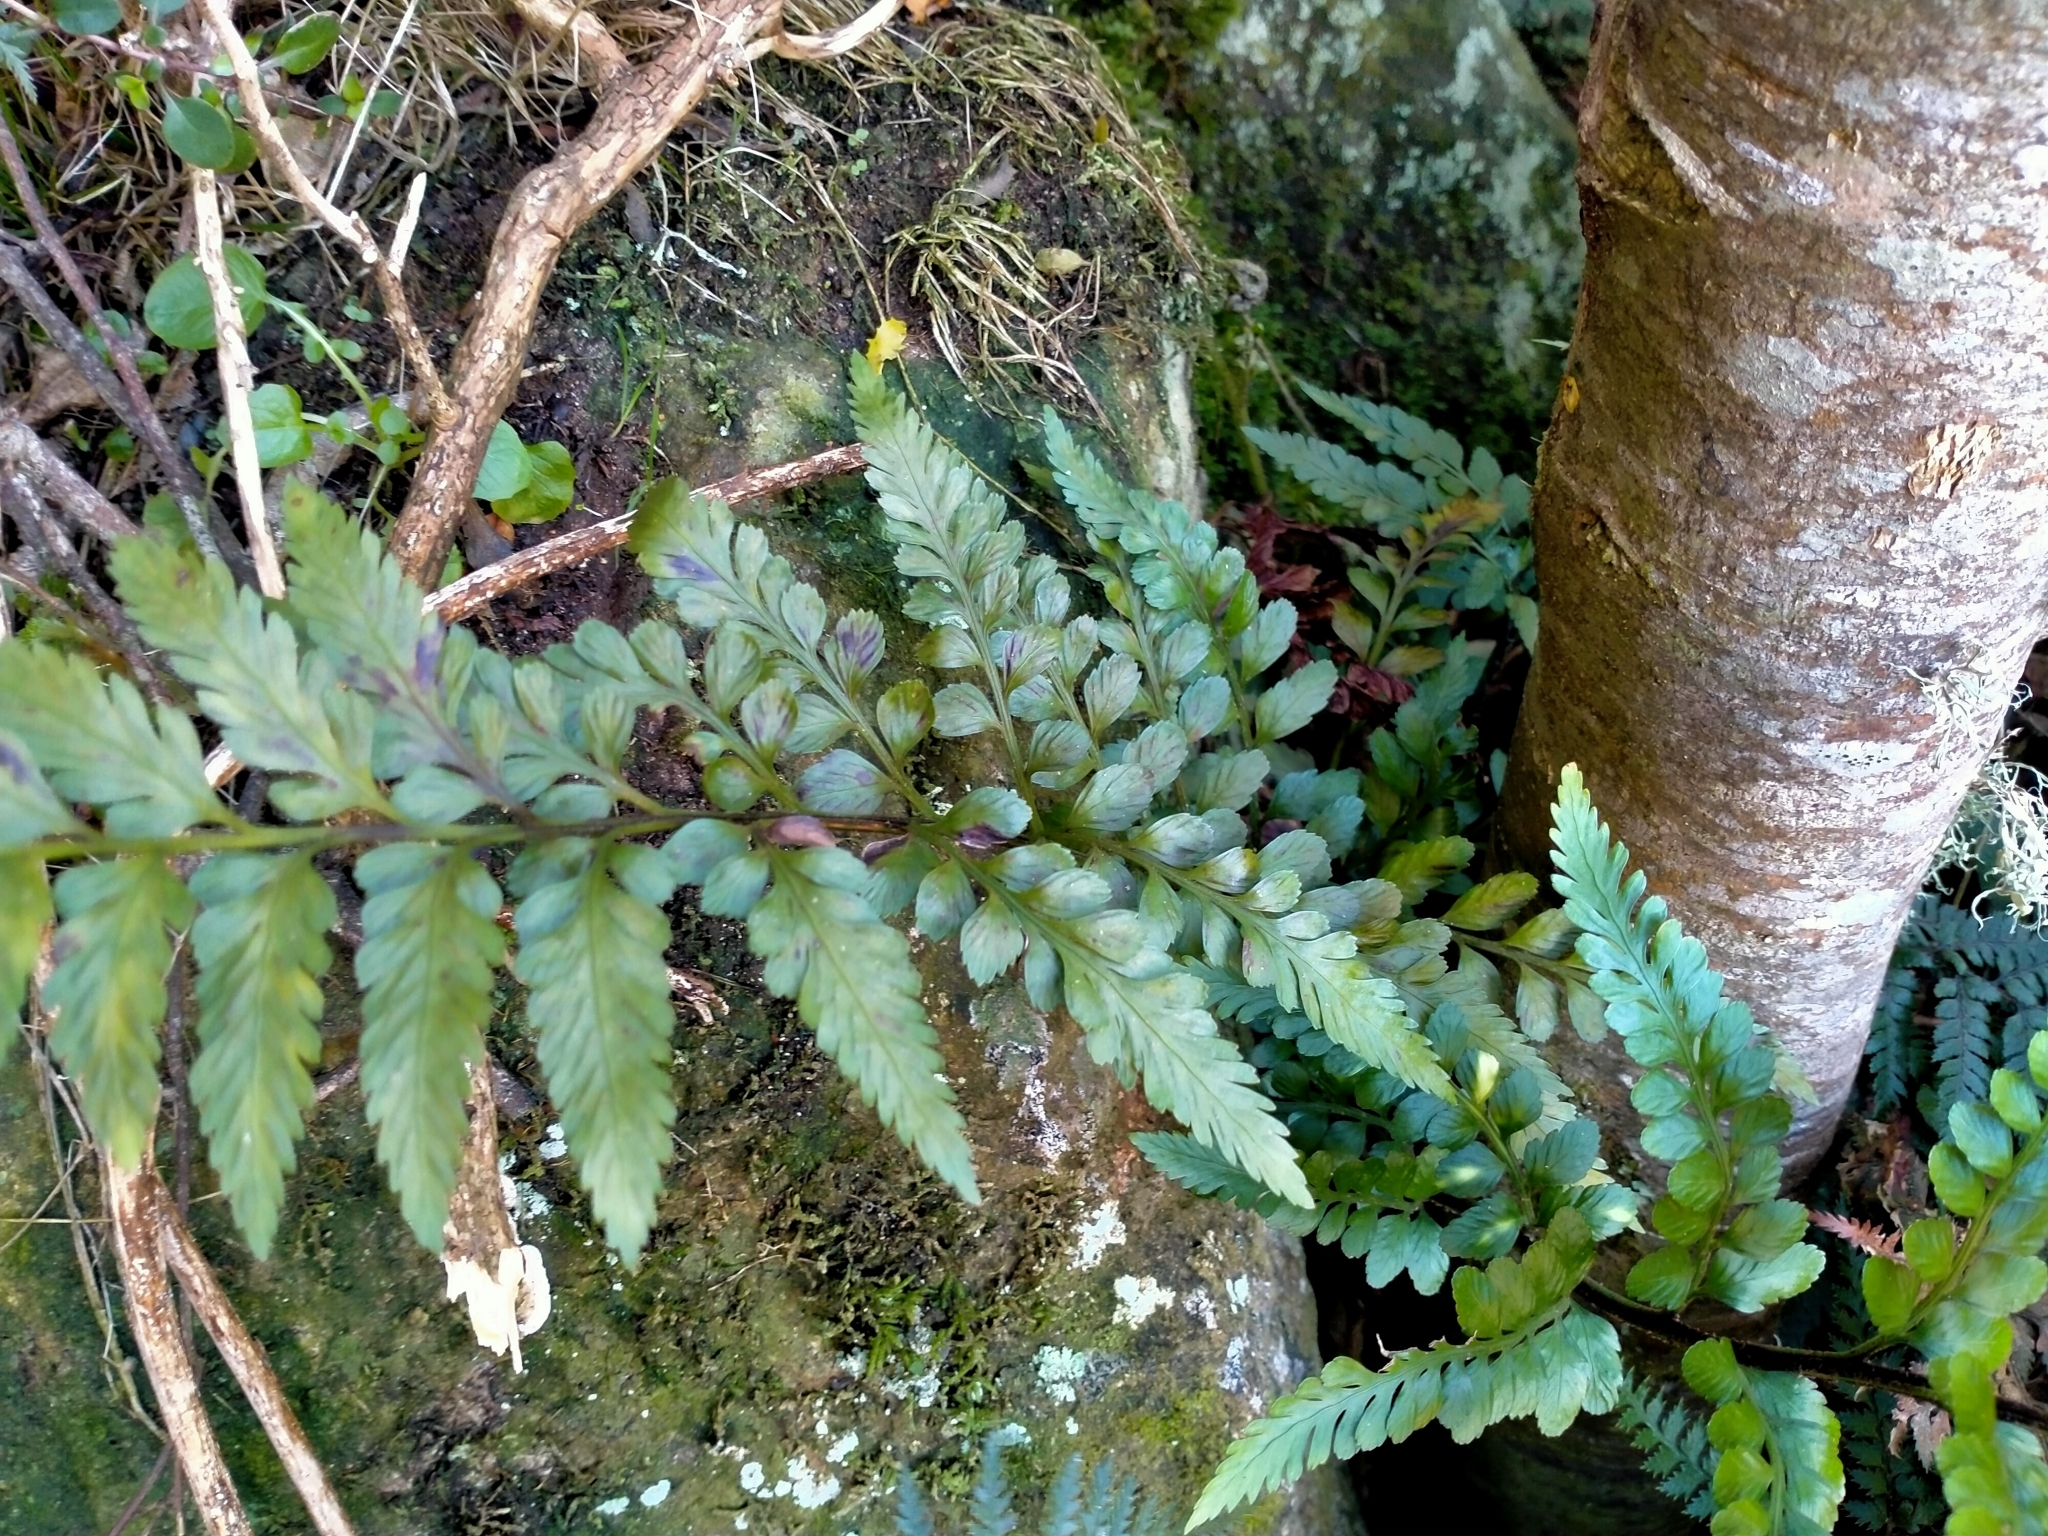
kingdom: Plantae
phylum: Tracheophyta
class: Polypodiopsida
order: Polypodiales
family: Aspleniaceae
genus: Asplenium
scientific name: Asplenium lyallii
